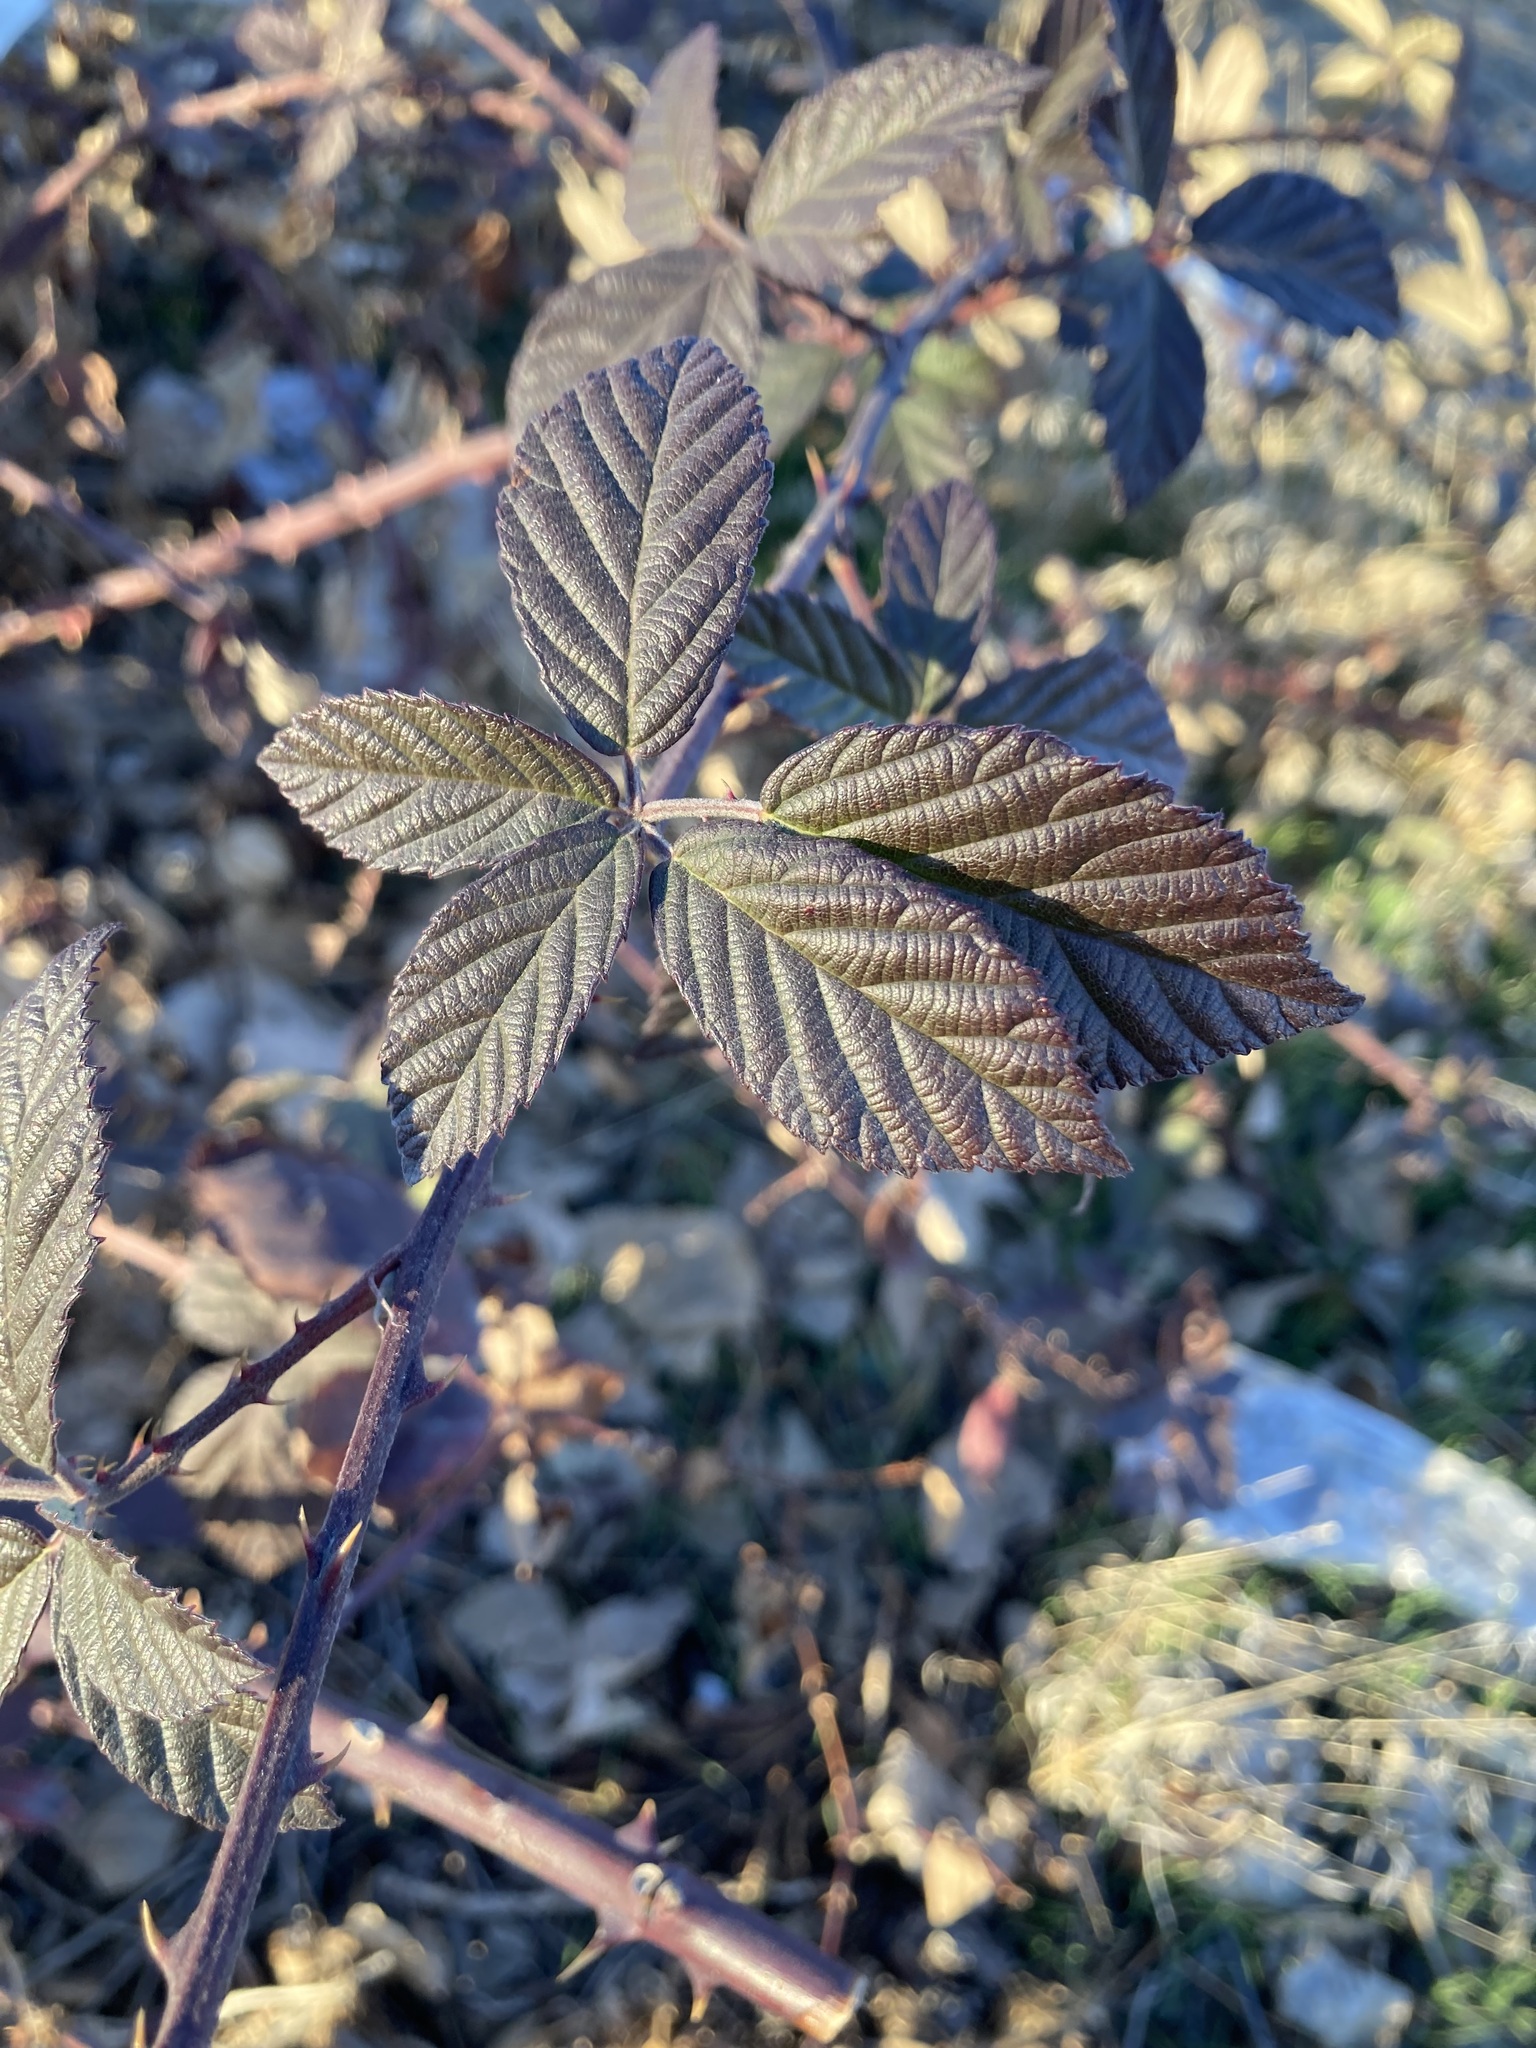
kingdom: Plantae
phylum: Tracheophyta
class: Magnoliopsida
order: Rosales
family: Rosaceae
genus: Rubus
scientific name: Rubus armeniacus
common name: Himalayan blackberry
